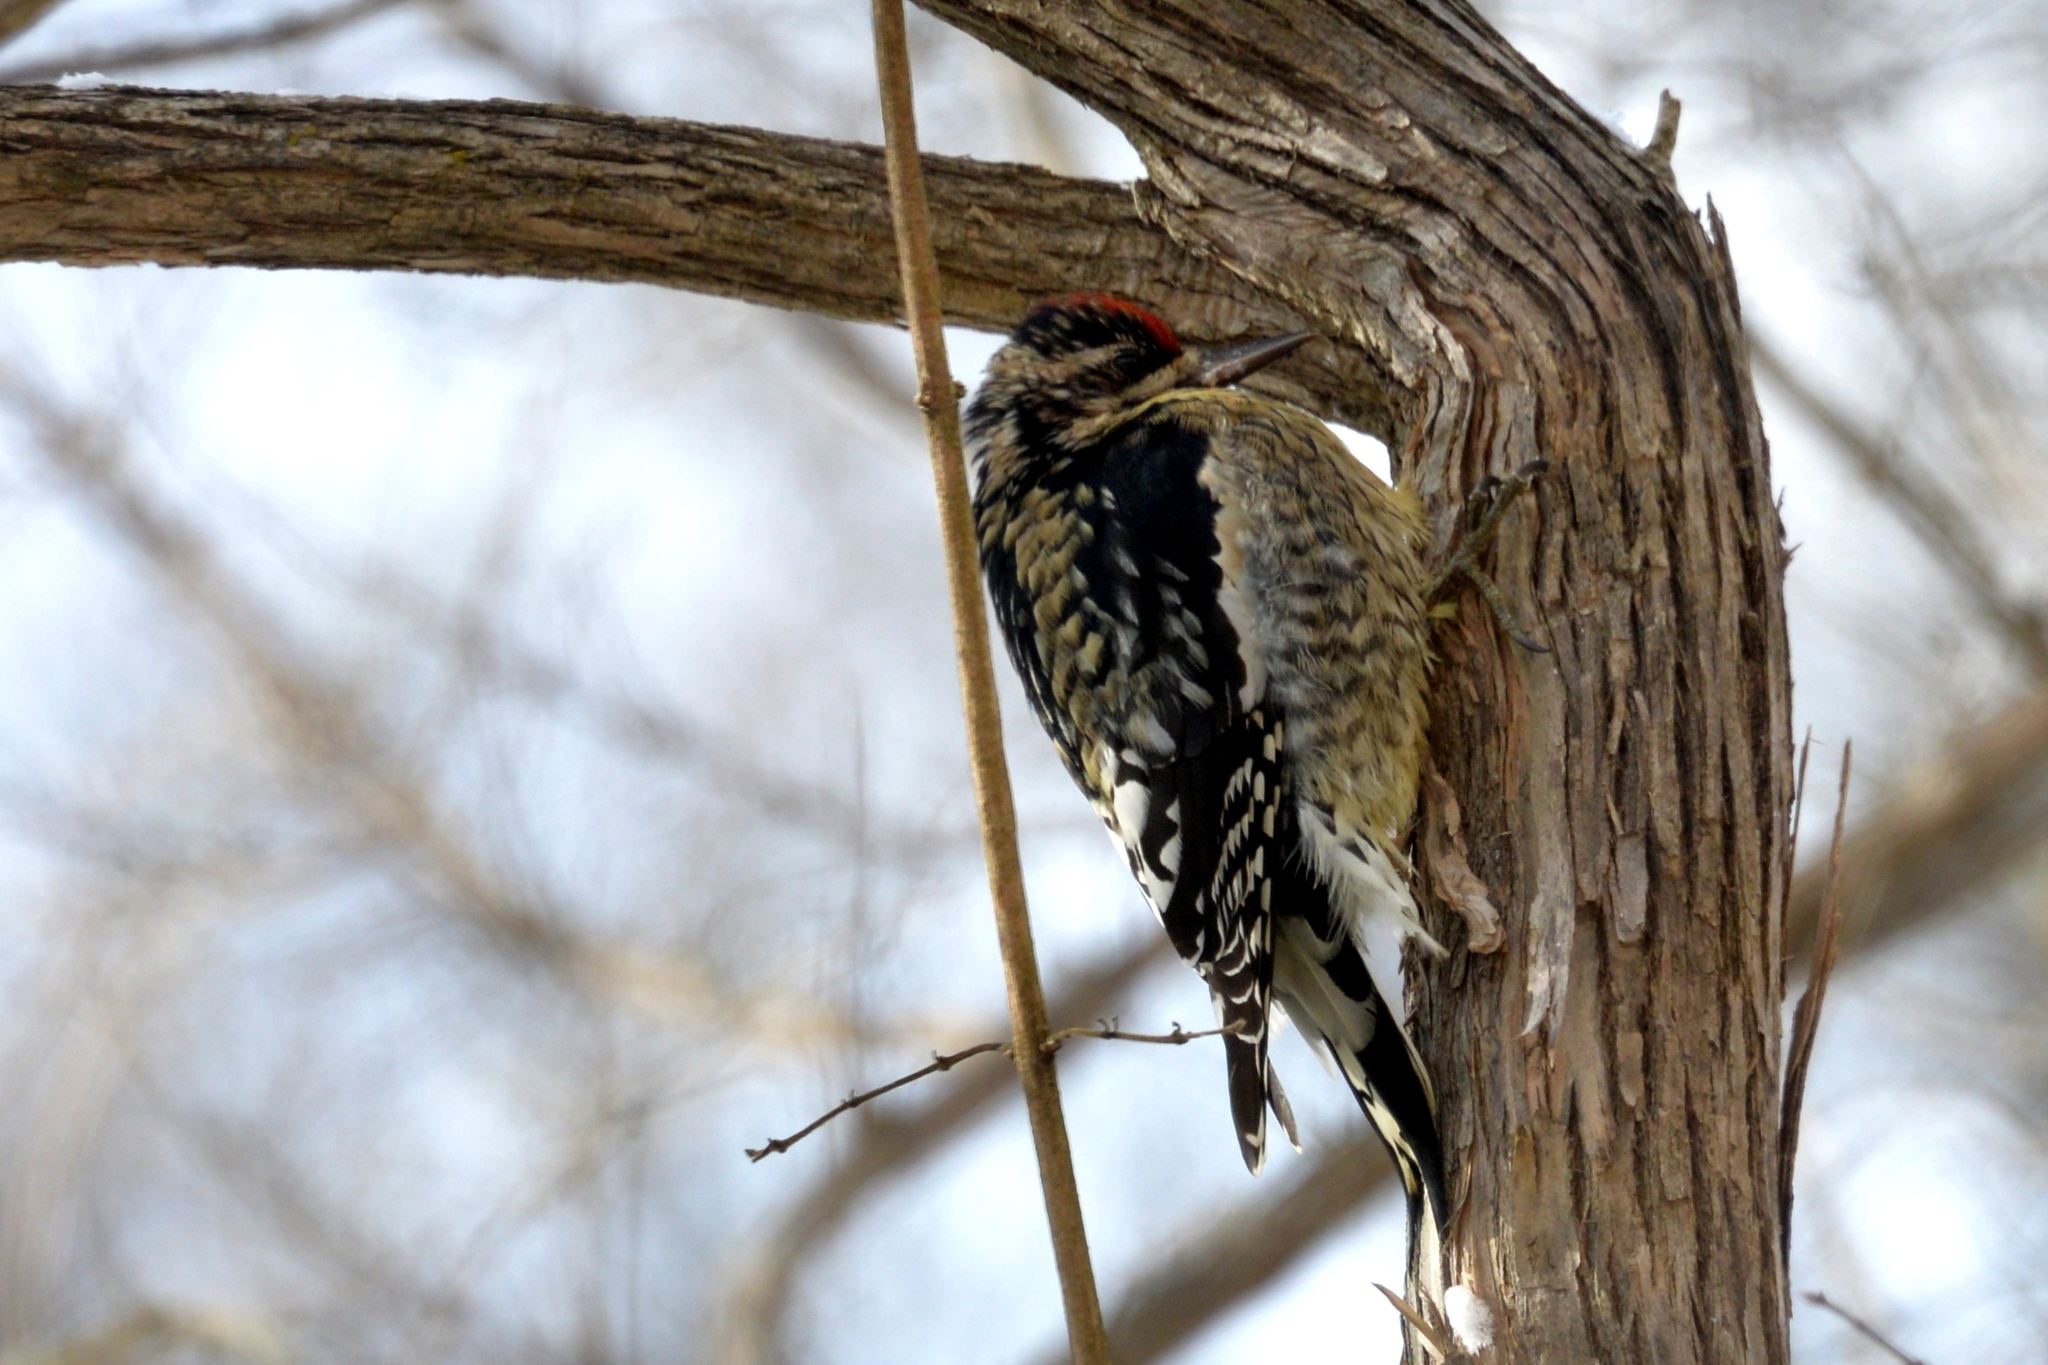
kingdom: Animalia
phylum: Chordata
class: Aves
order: Piciformes
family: Picidae
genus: Sphyrapicus
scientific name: Sphyrapicus varius
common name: Yellow-bellied sapsucker
